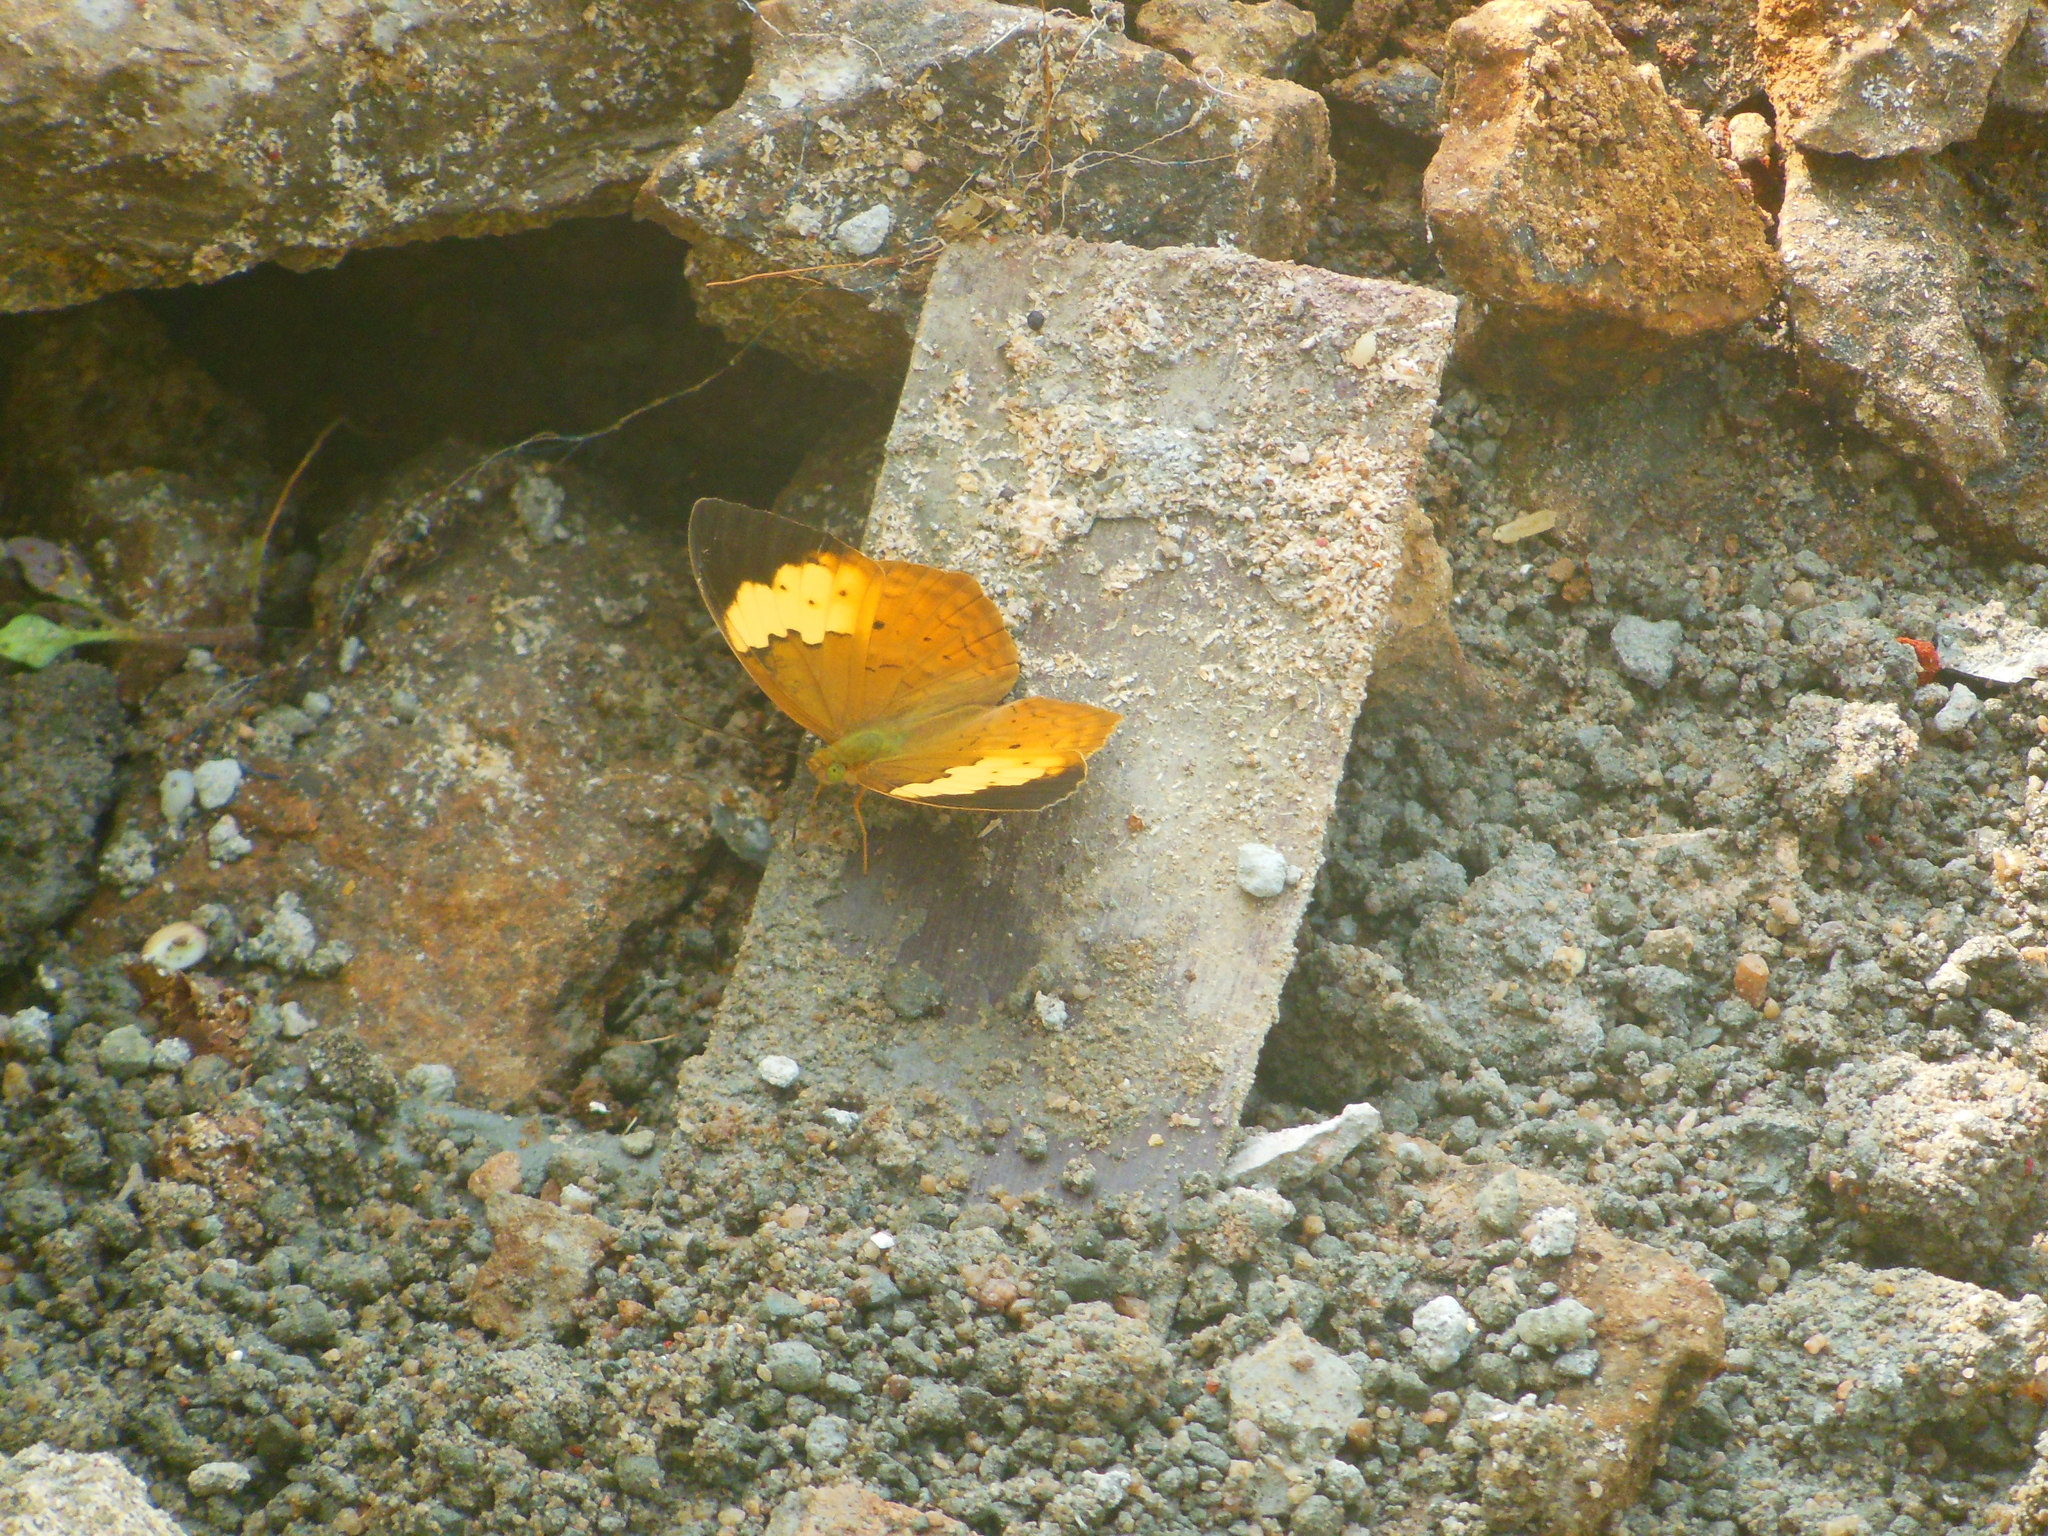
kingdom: Animalia
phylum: Arthropoda
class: Insecta
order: Lepidoptera
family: Nymphalidae
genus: Cupha
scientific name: Cupha erymanthis
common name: Rustic
